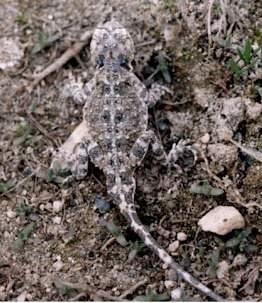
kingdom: Animalia
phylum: Chordata
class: Squamata
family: Agamidae
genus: Phrynocephalus
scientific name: Phrynocephalus horvathi
